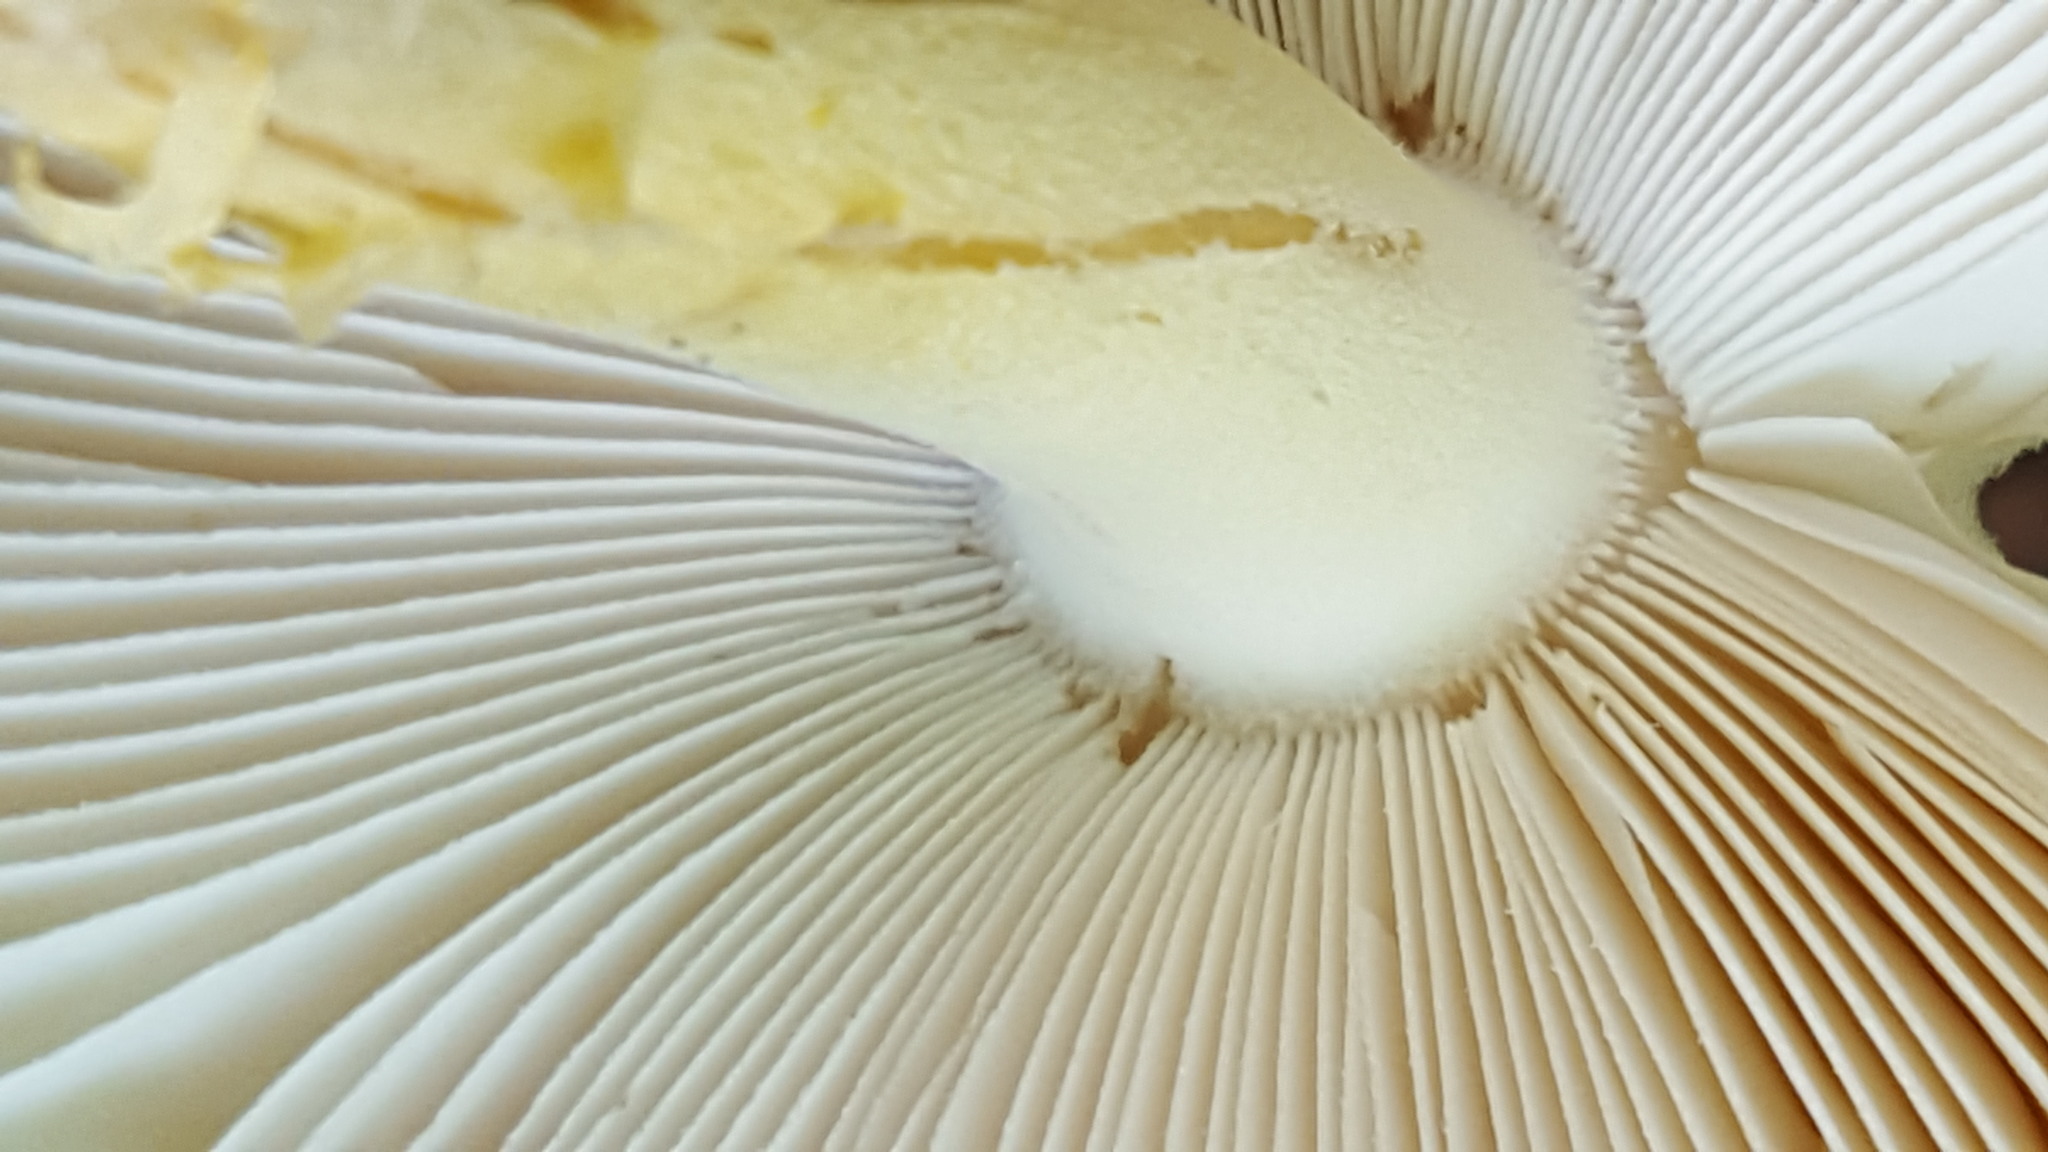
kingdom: Fungi
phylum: Basidiomycota
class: Agaricomycetes
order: Agaricales
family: Amanitaceae
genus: Amanita
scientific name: Amanita muscaria
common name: Fly agaric
